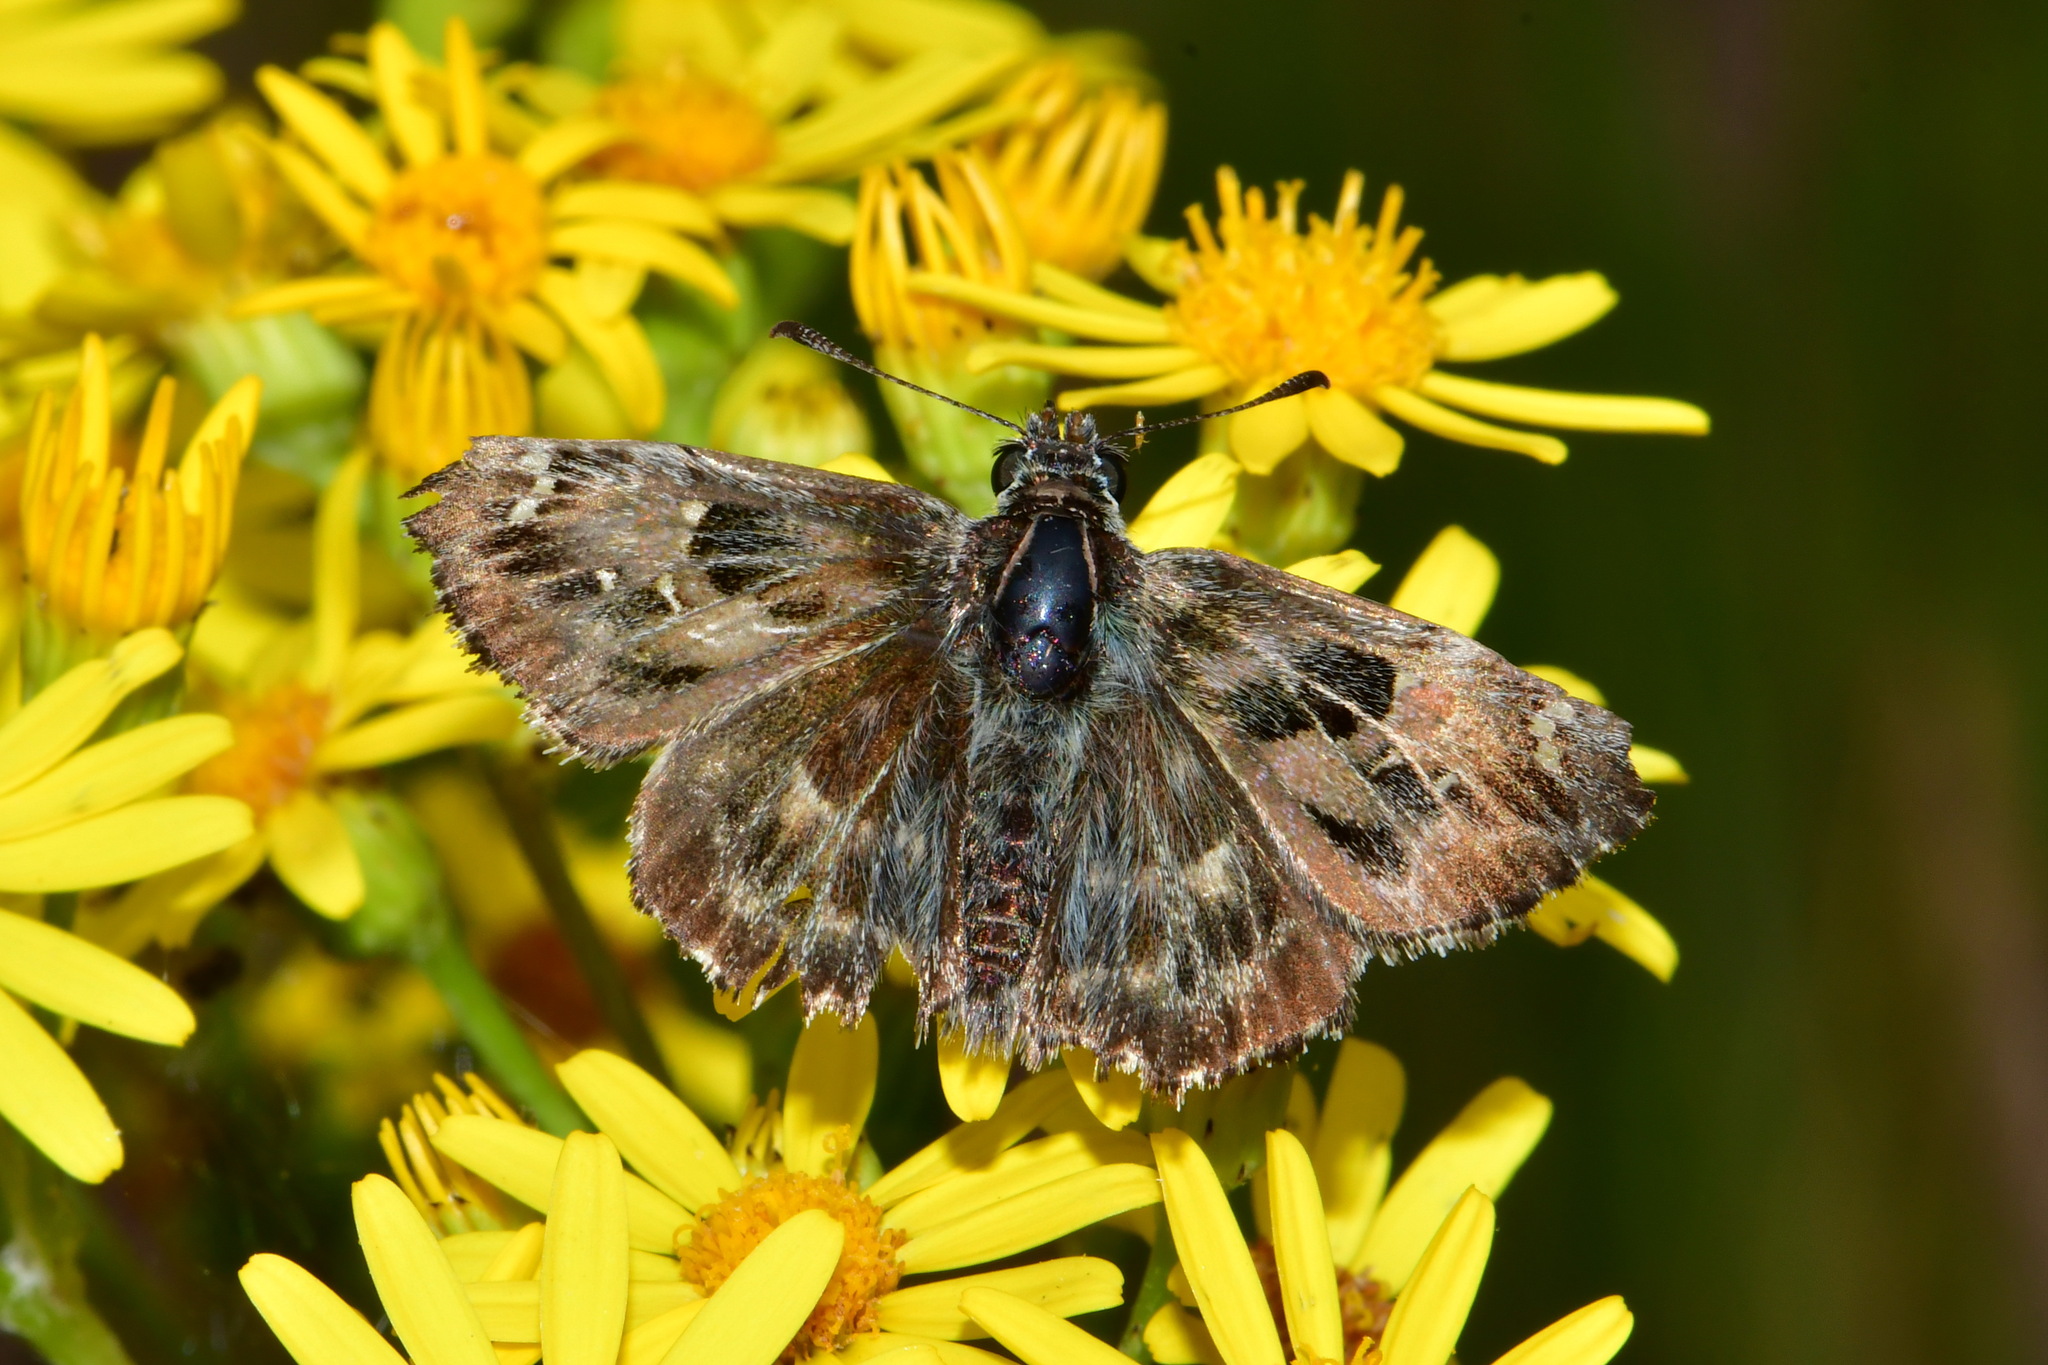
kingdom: Animalia
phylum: Arthropoda
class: Insecta
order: Lepidoptera
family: Hesperiidae
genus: Carcharodus
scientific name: Carcharodus alceae
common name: Mallow skipper
